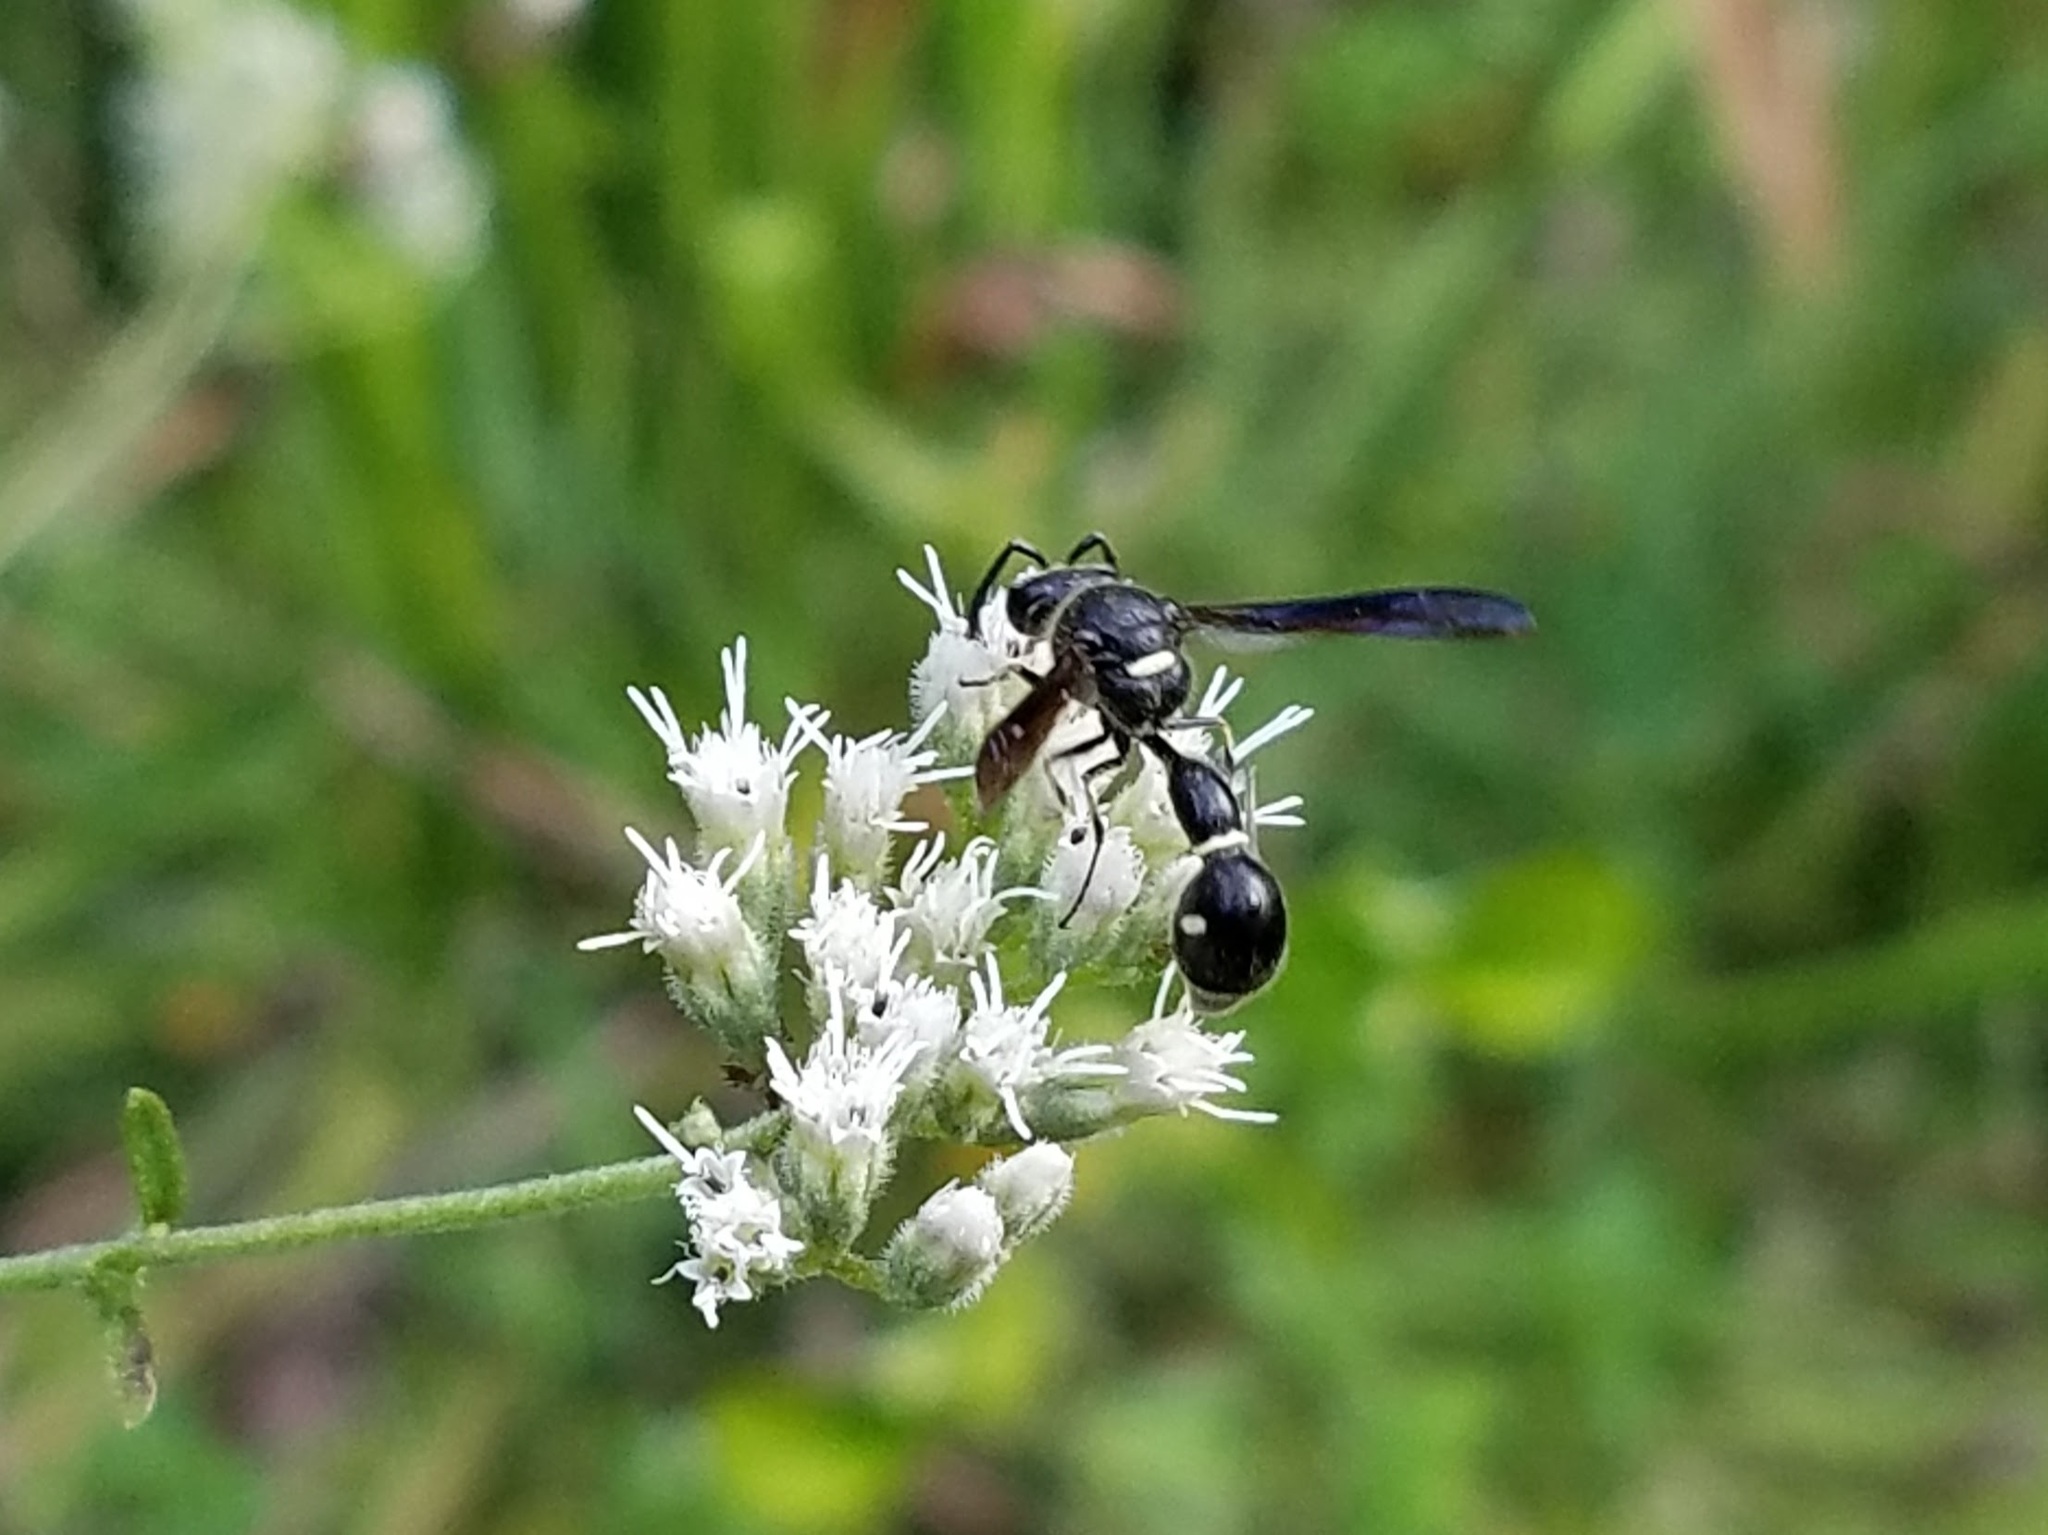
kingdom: Animalia
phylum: Arthropoda
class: Insecta
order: Hymenoptera
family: Vespidae
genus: Eumenes
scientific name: Eumenes fraternus
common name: Fraternal potter wasp
